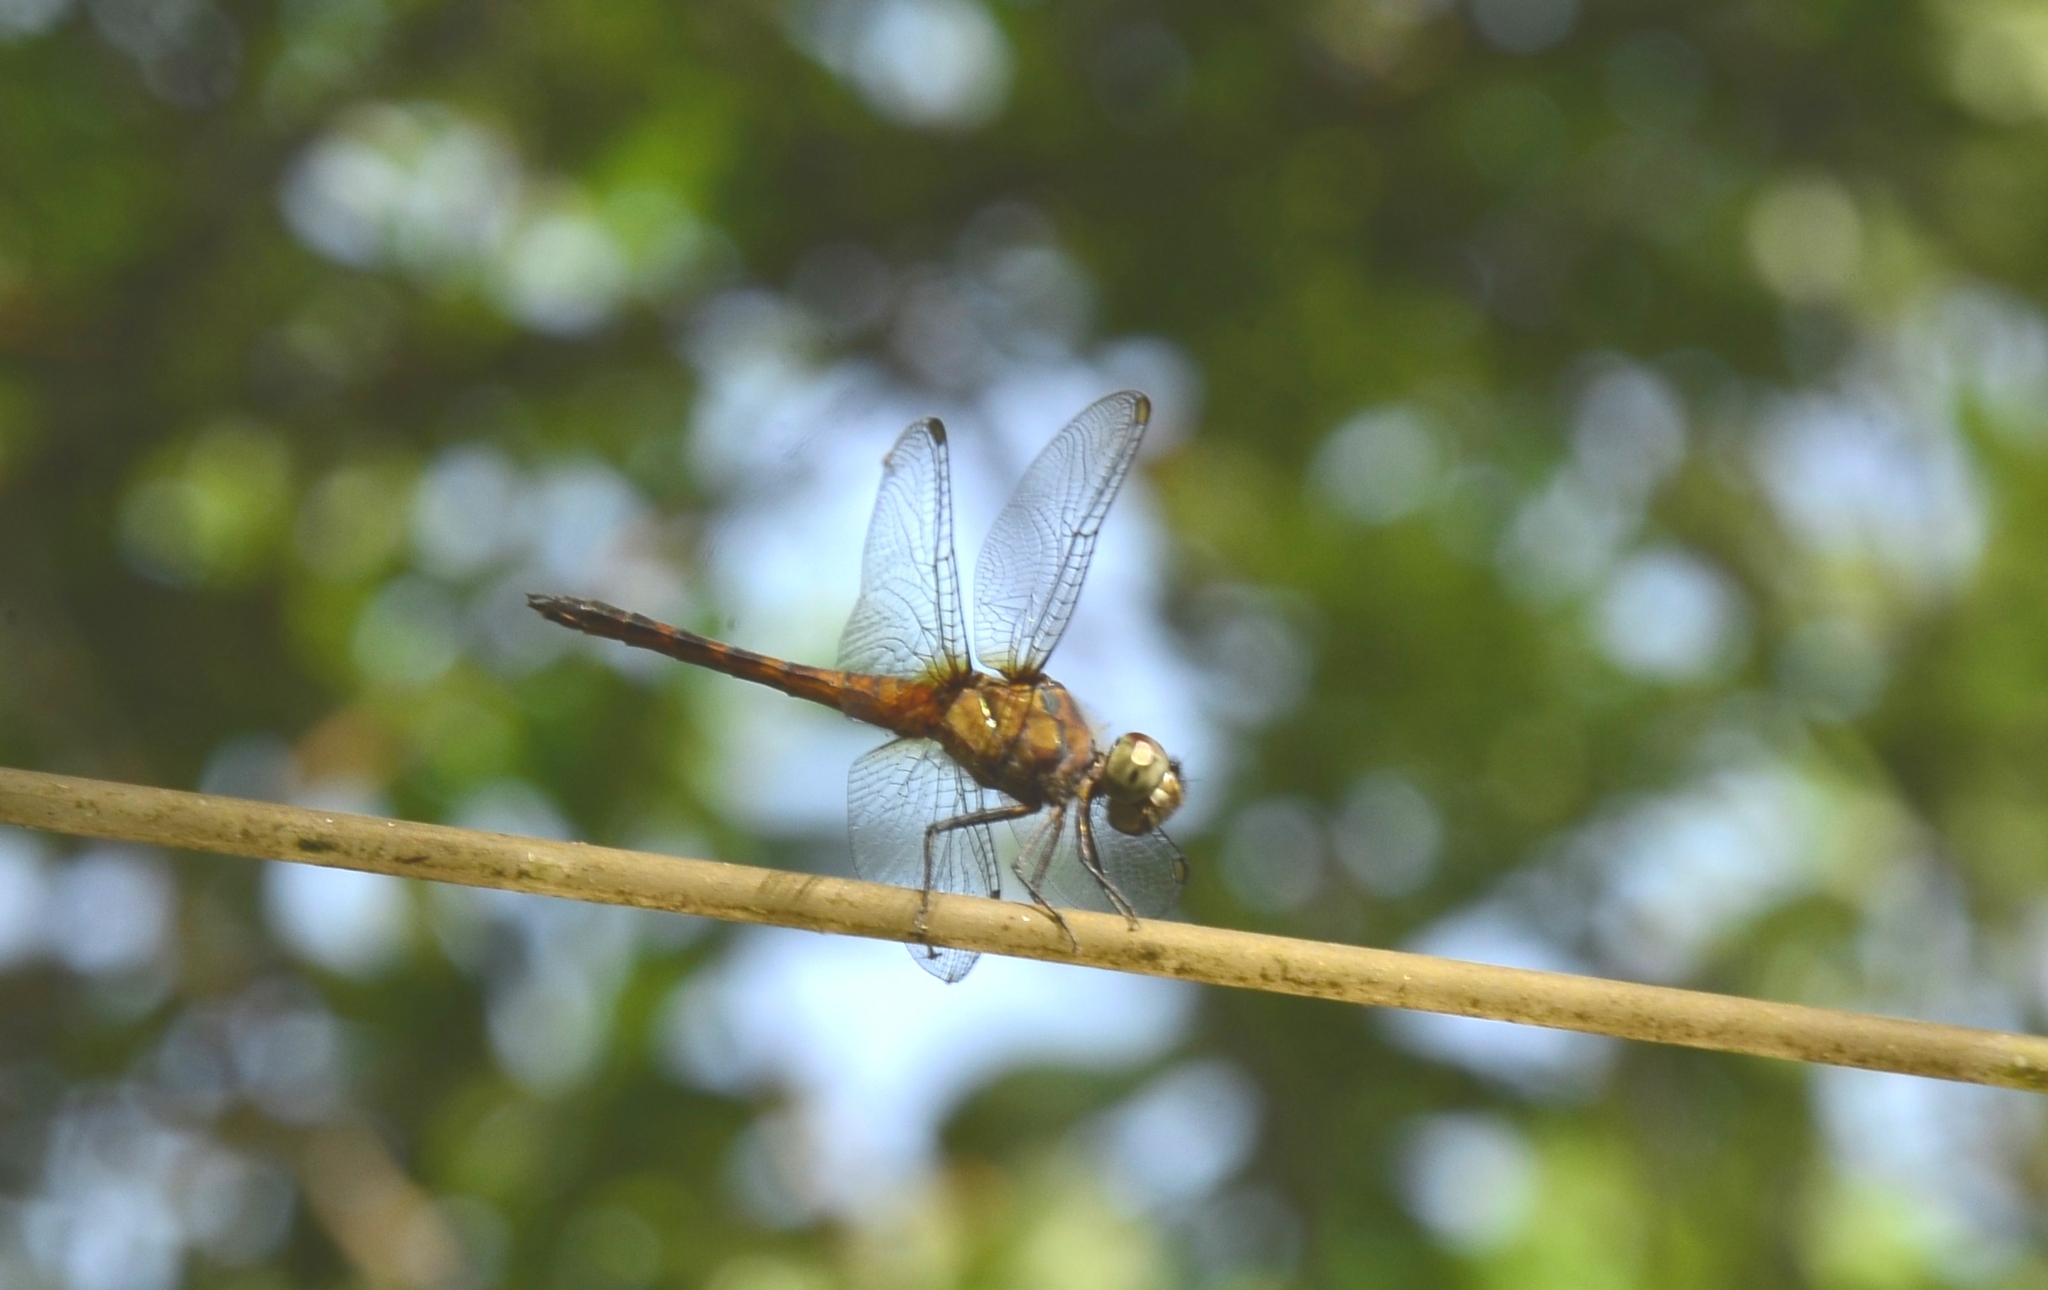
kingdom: Animalia
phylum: Arthropoda
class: Insecta
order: Odonata
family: Libellulidae
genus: Brachydiplax
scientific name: Brachydiplax chalybea
